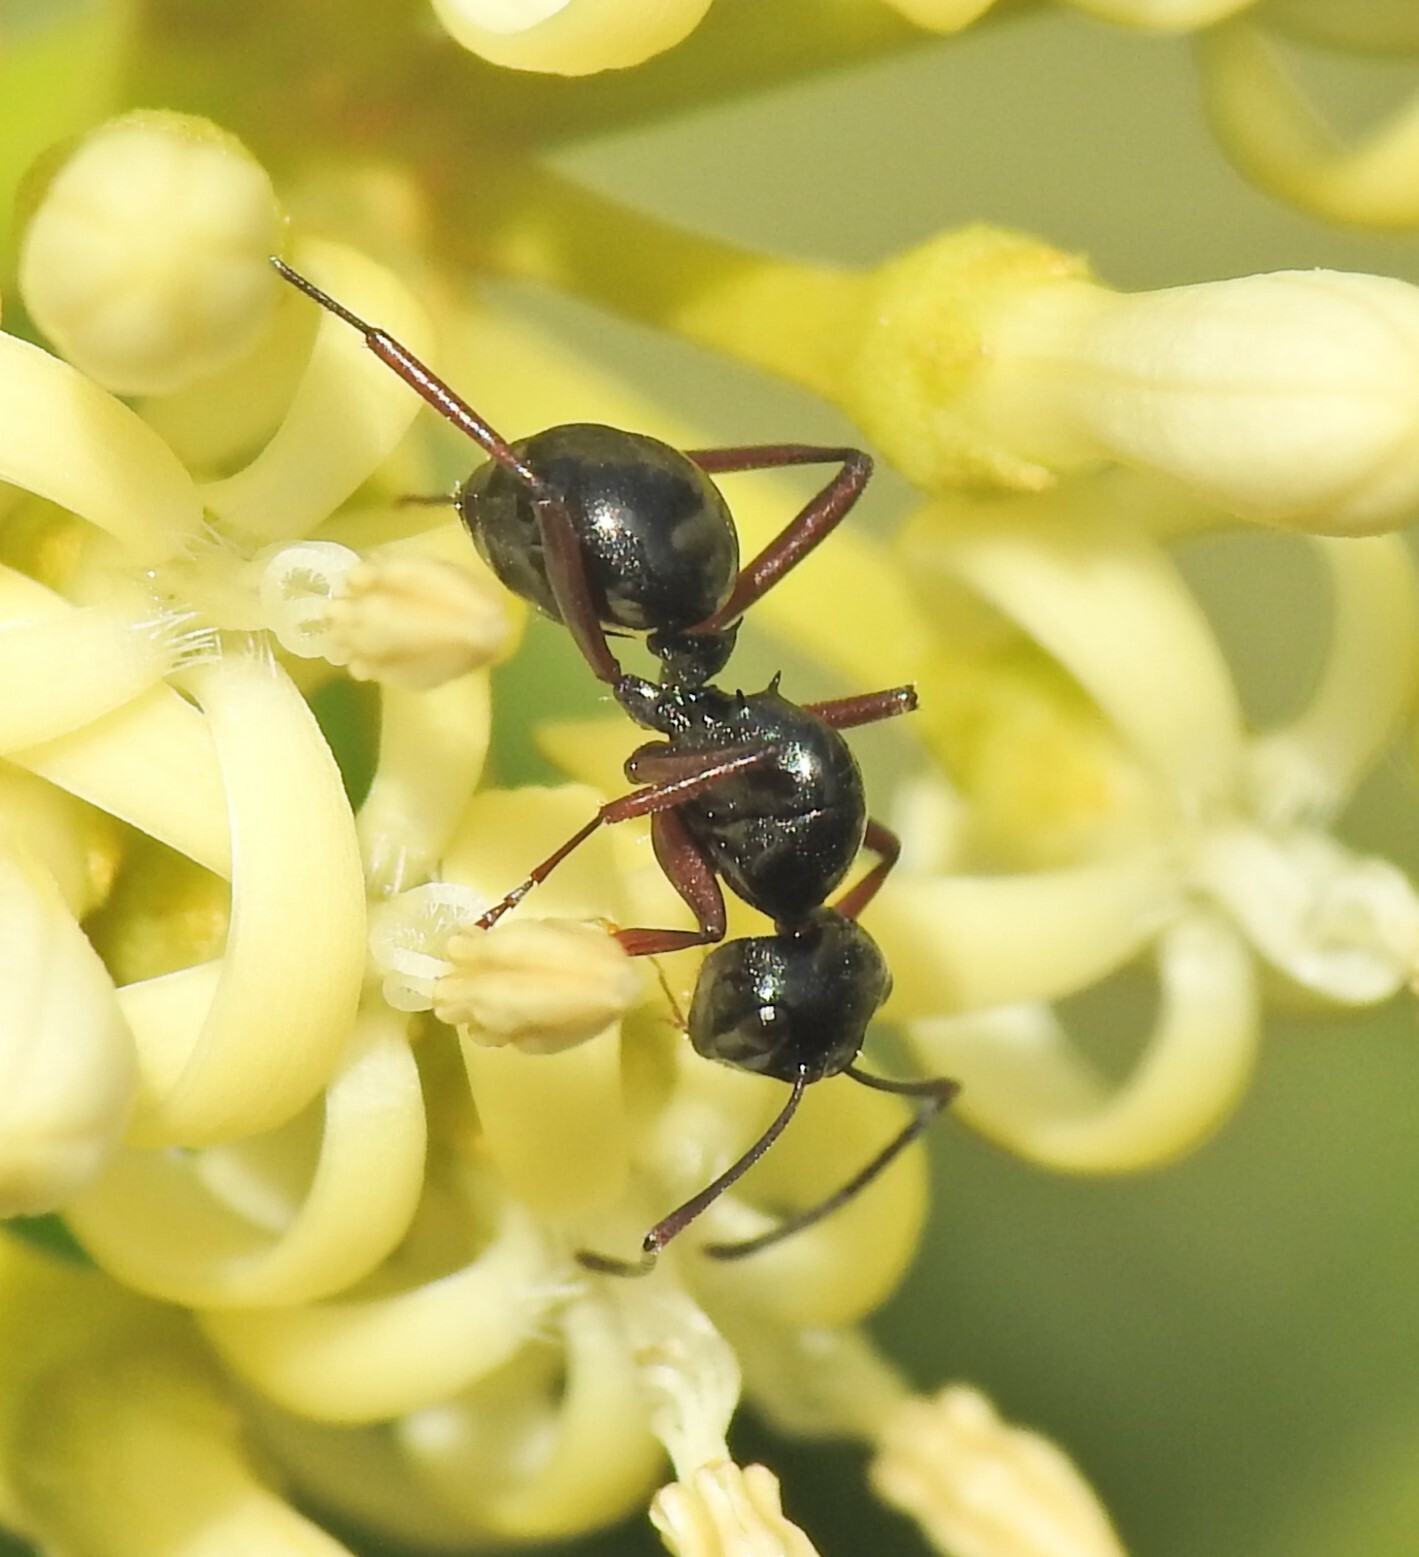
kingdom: Animalia
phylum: Arthropoda
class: Insecta
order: Hymenoptera
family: Formicidae
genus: Polyrhachis
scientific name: Polyrhachis australis
